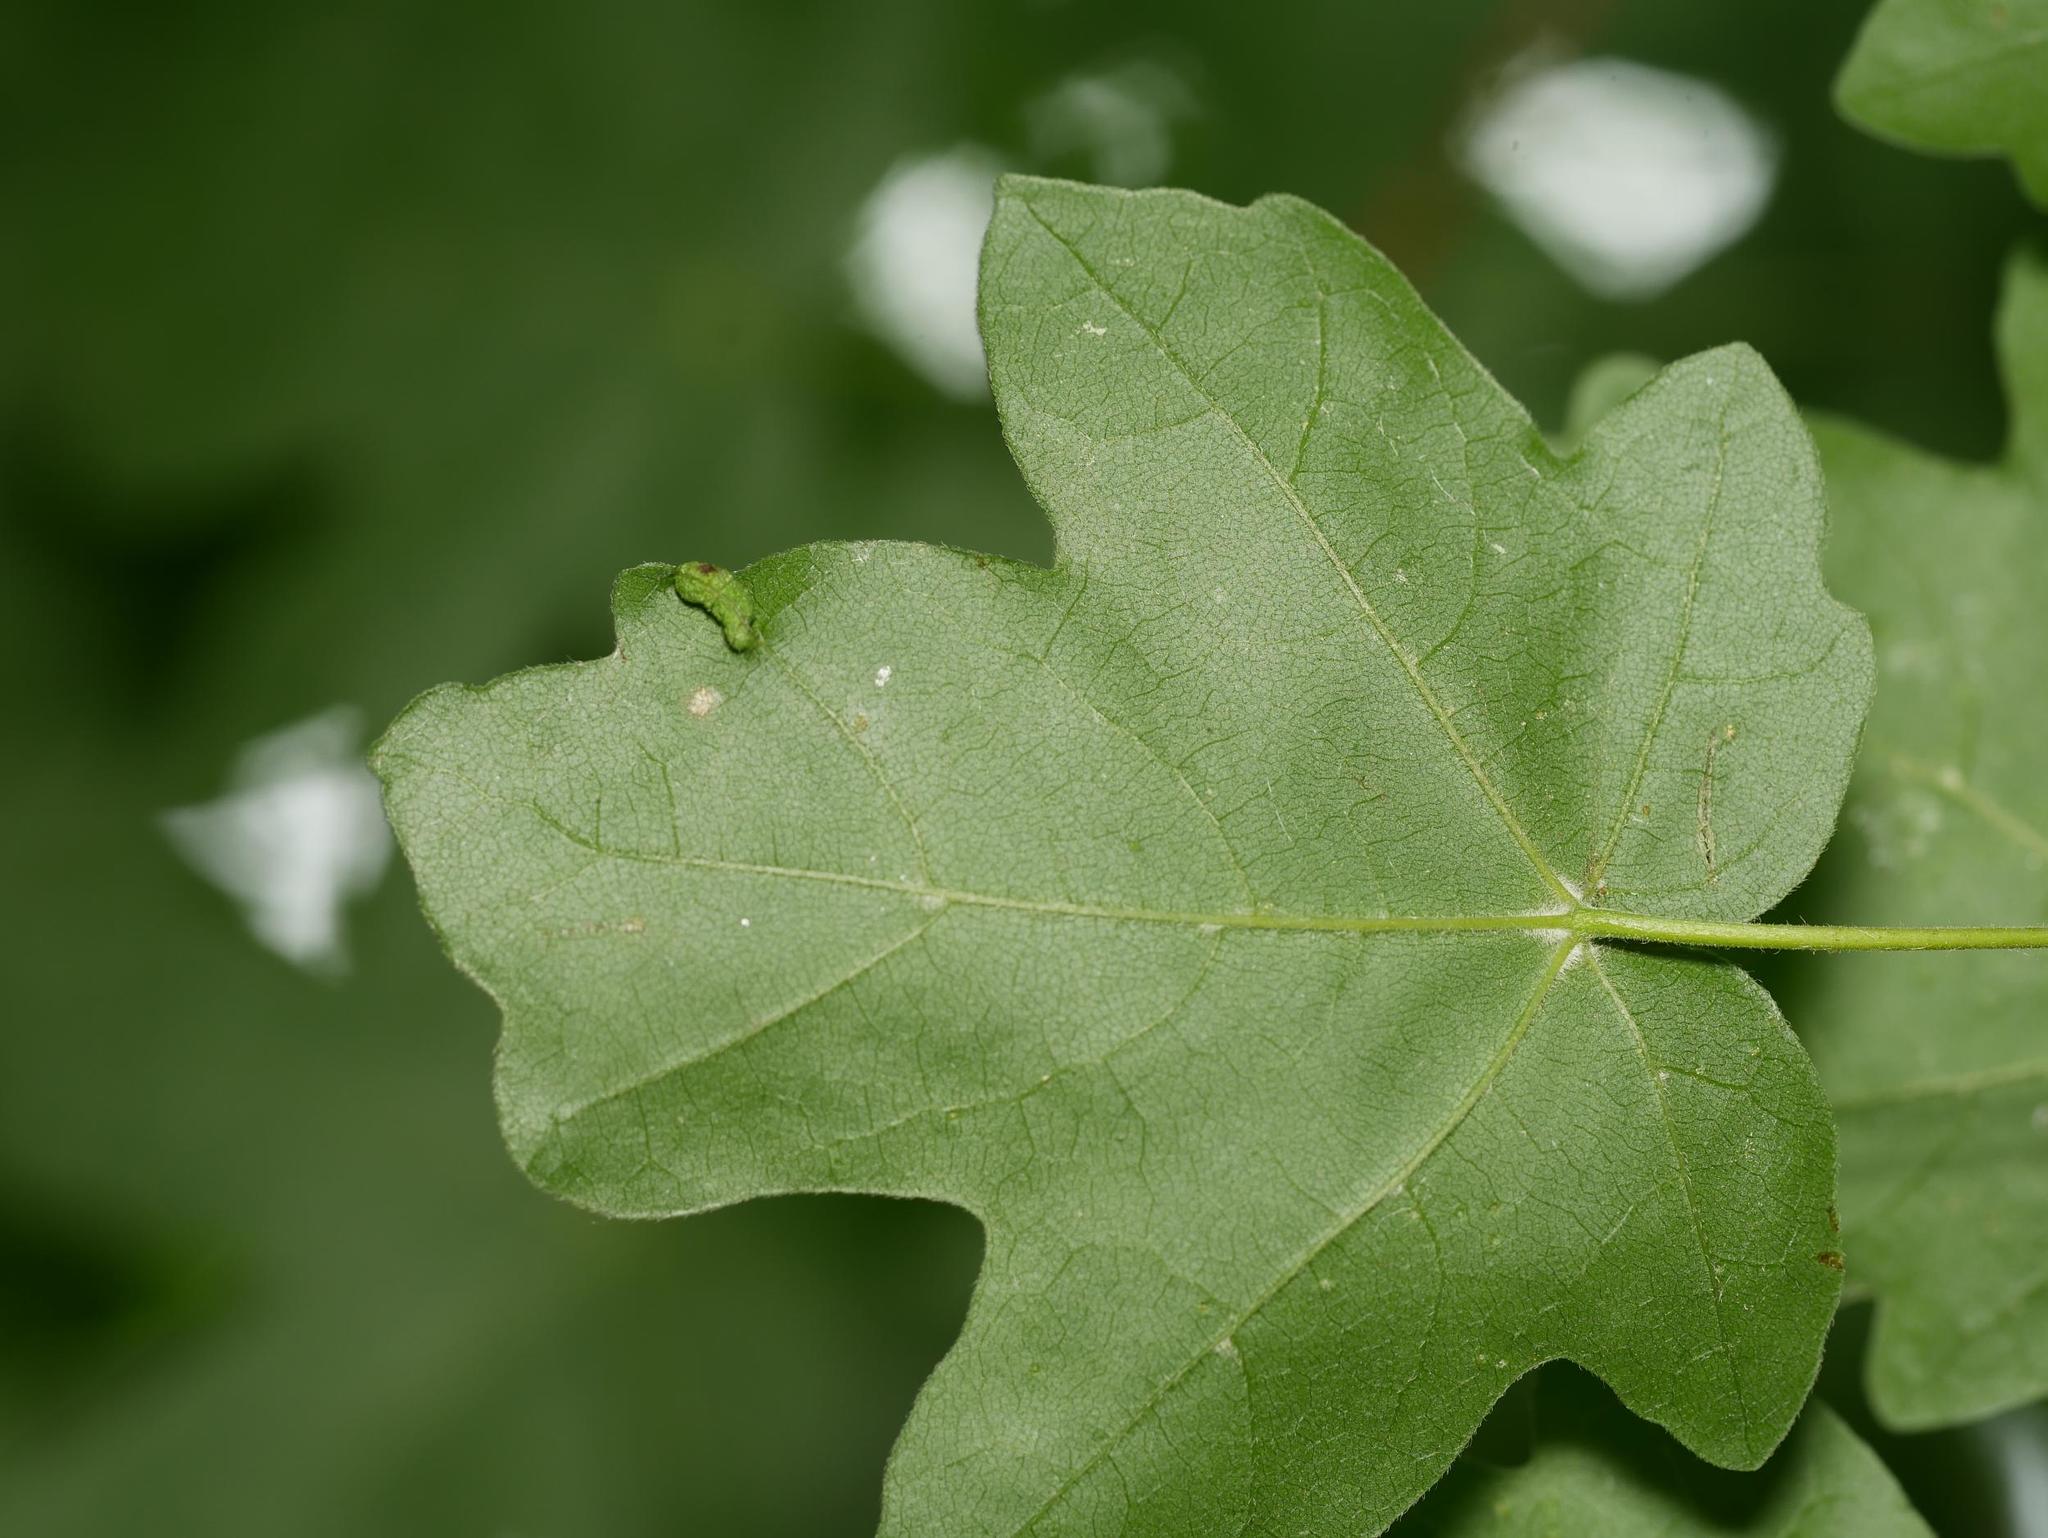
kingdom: Plantae
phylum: Tracheophyta
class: Magnoliopsida
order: Sapindales
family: Sapindaceae
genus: Acer
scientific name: Acer campestre
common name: Field maple
